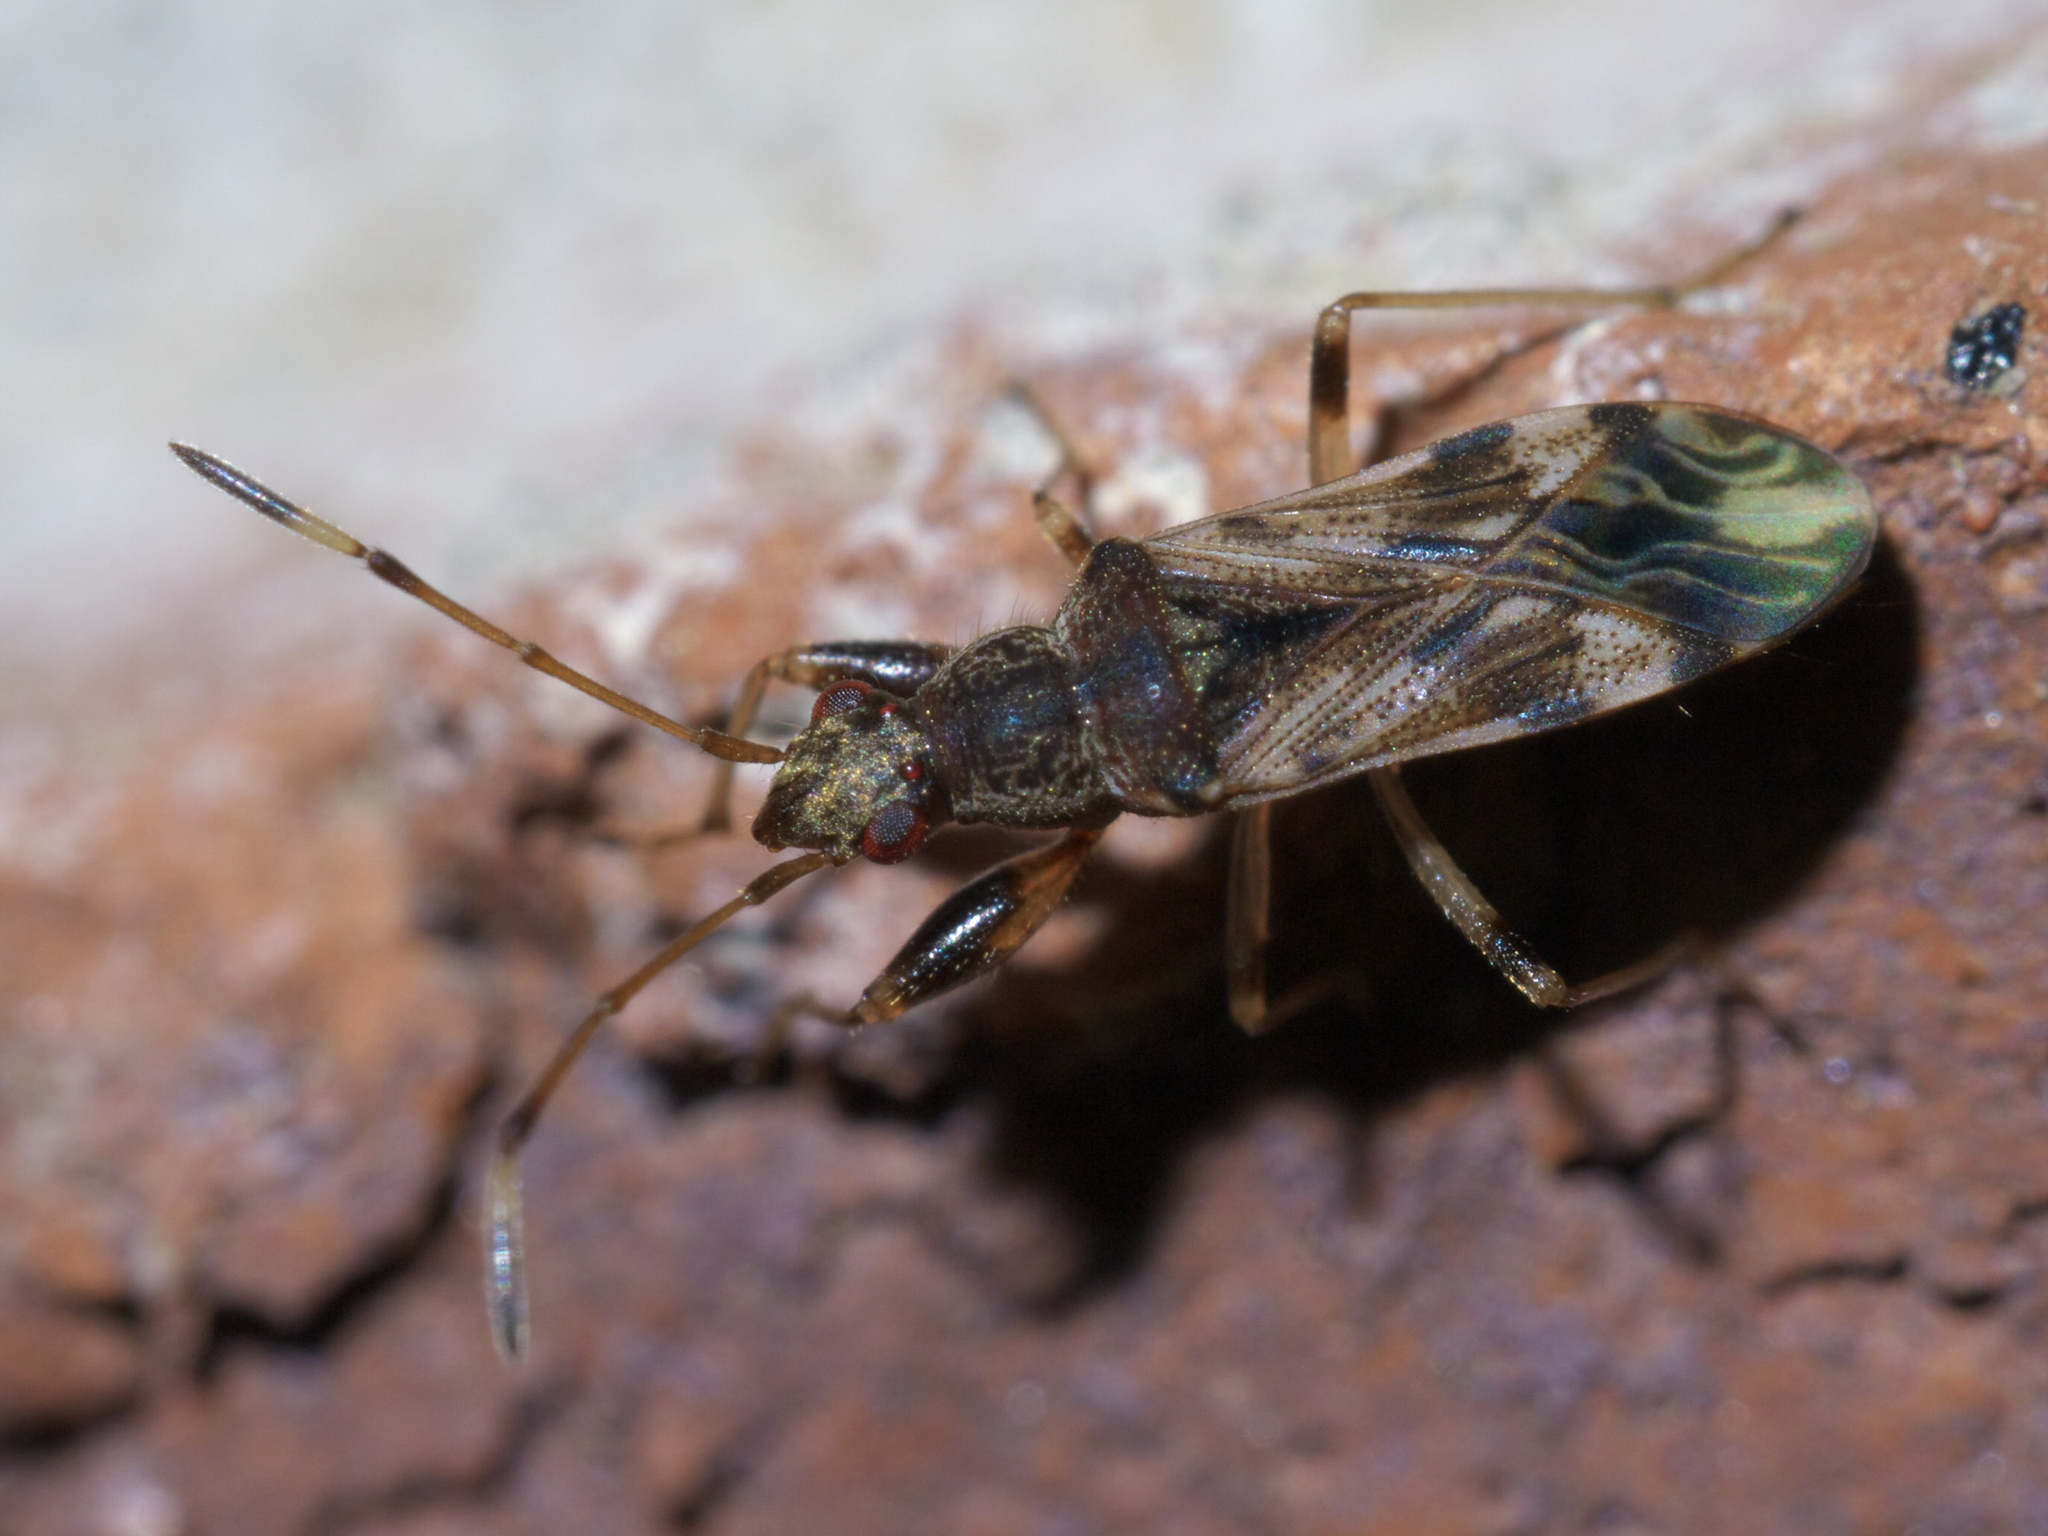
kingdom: Animalia
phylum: Arthropoda
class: Insecta
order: Hemiptera
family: Rhyparochromidae
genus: Neopamera
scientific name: Neopamera albocincta
